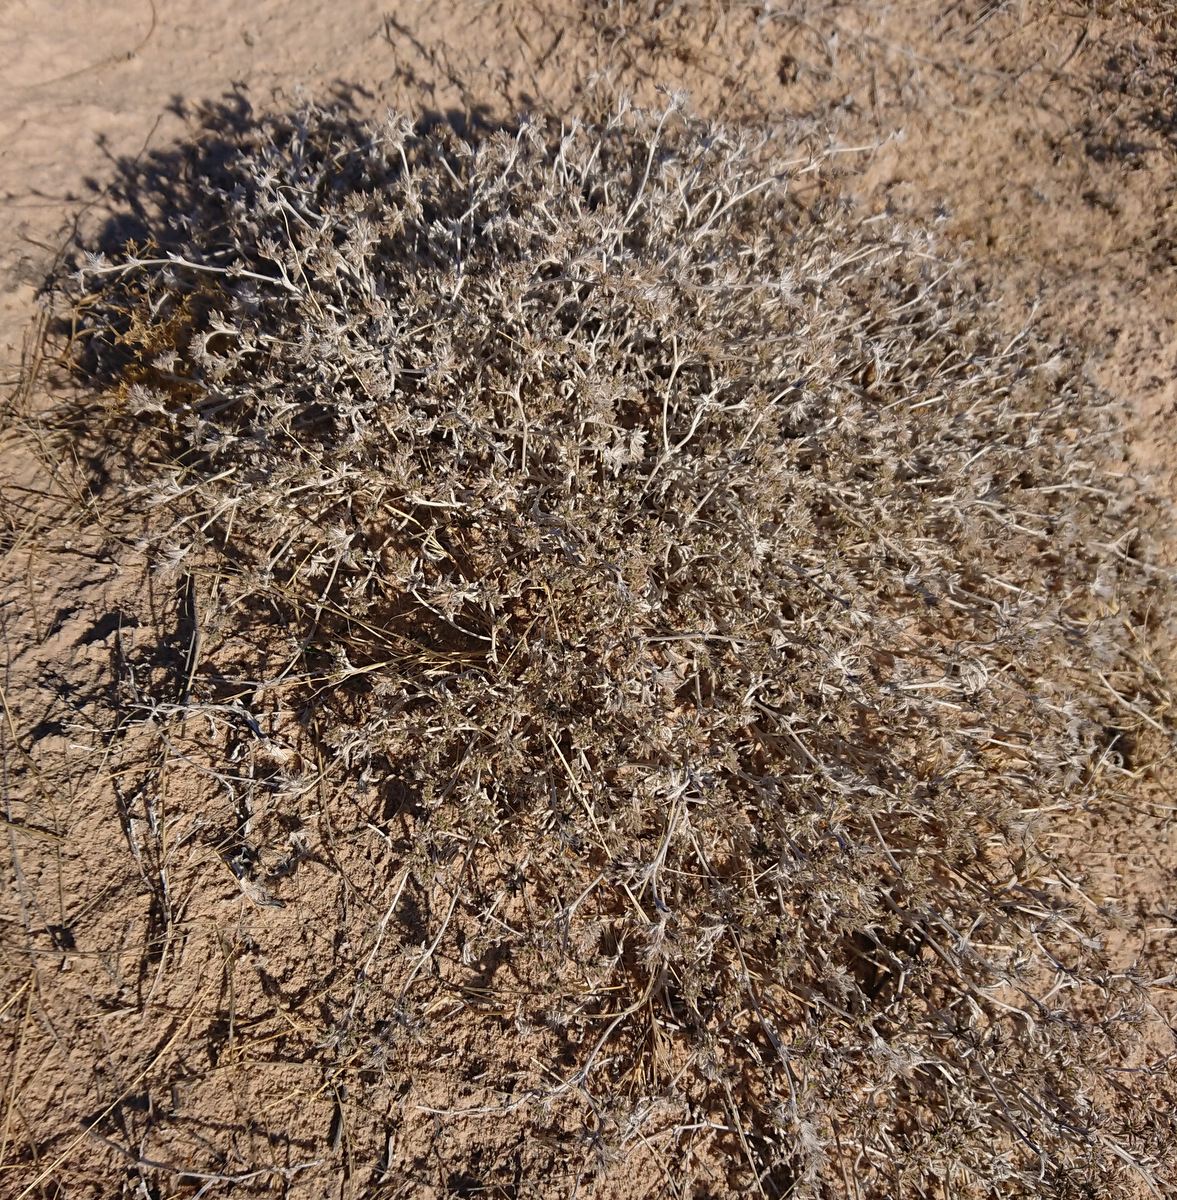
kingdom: Plantae
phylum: Tracheophyta
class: Magnoliopsida
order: Boraginales
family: Ehretiaceae
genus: Tiquilia
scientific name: Tiquilia hispidissima
